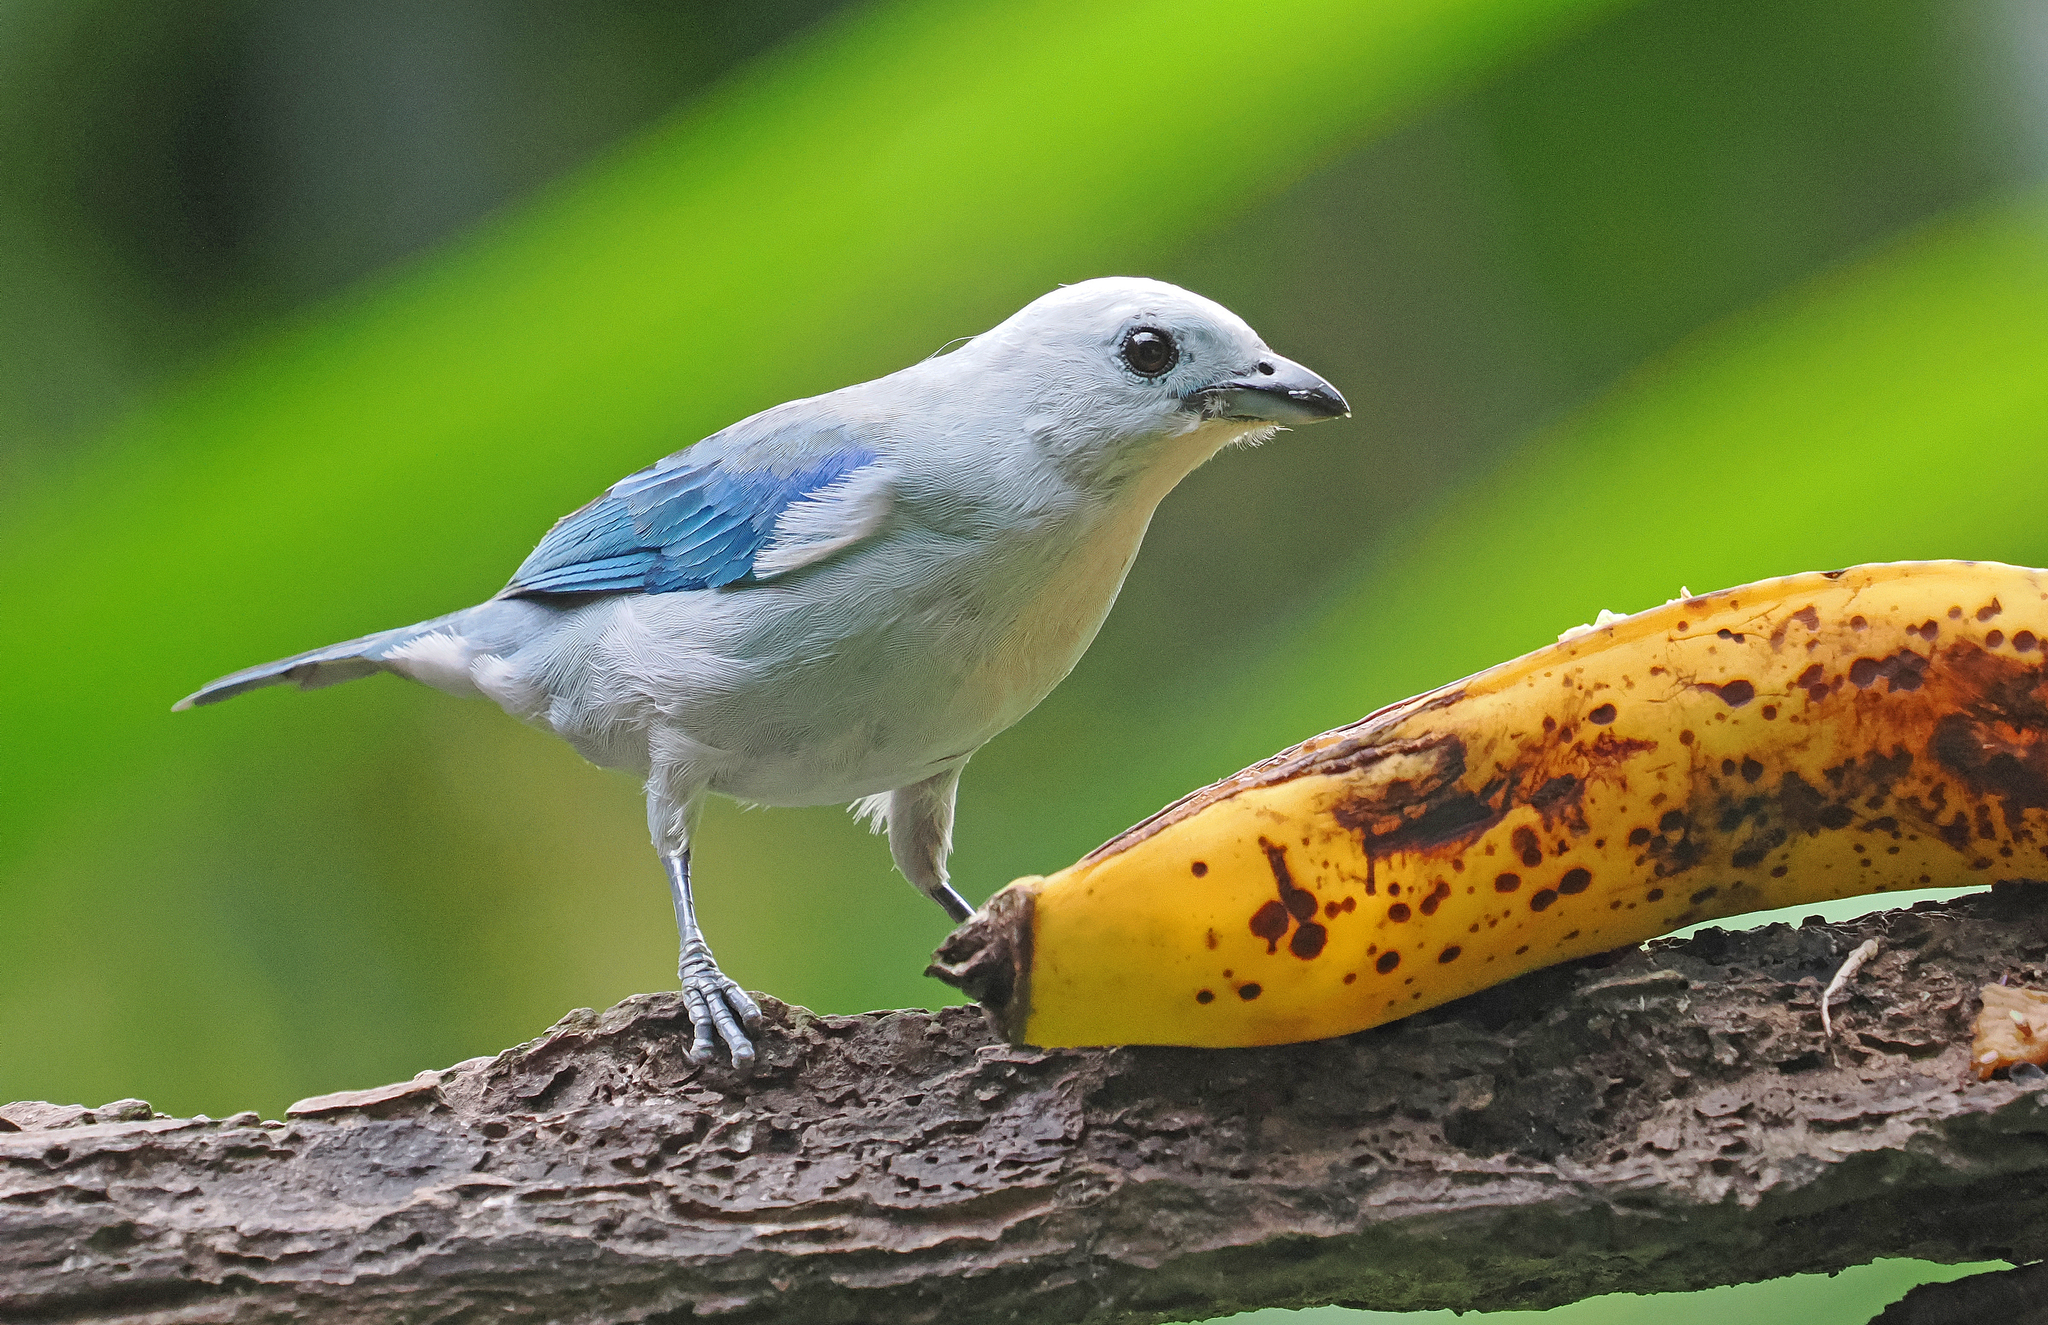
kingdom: Animalia
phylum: Chordata
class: Aves
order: Passeriformes
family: Thraupidae
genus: Thraupis
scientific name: Thraupis episcopus
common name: Blue-grey tanager
